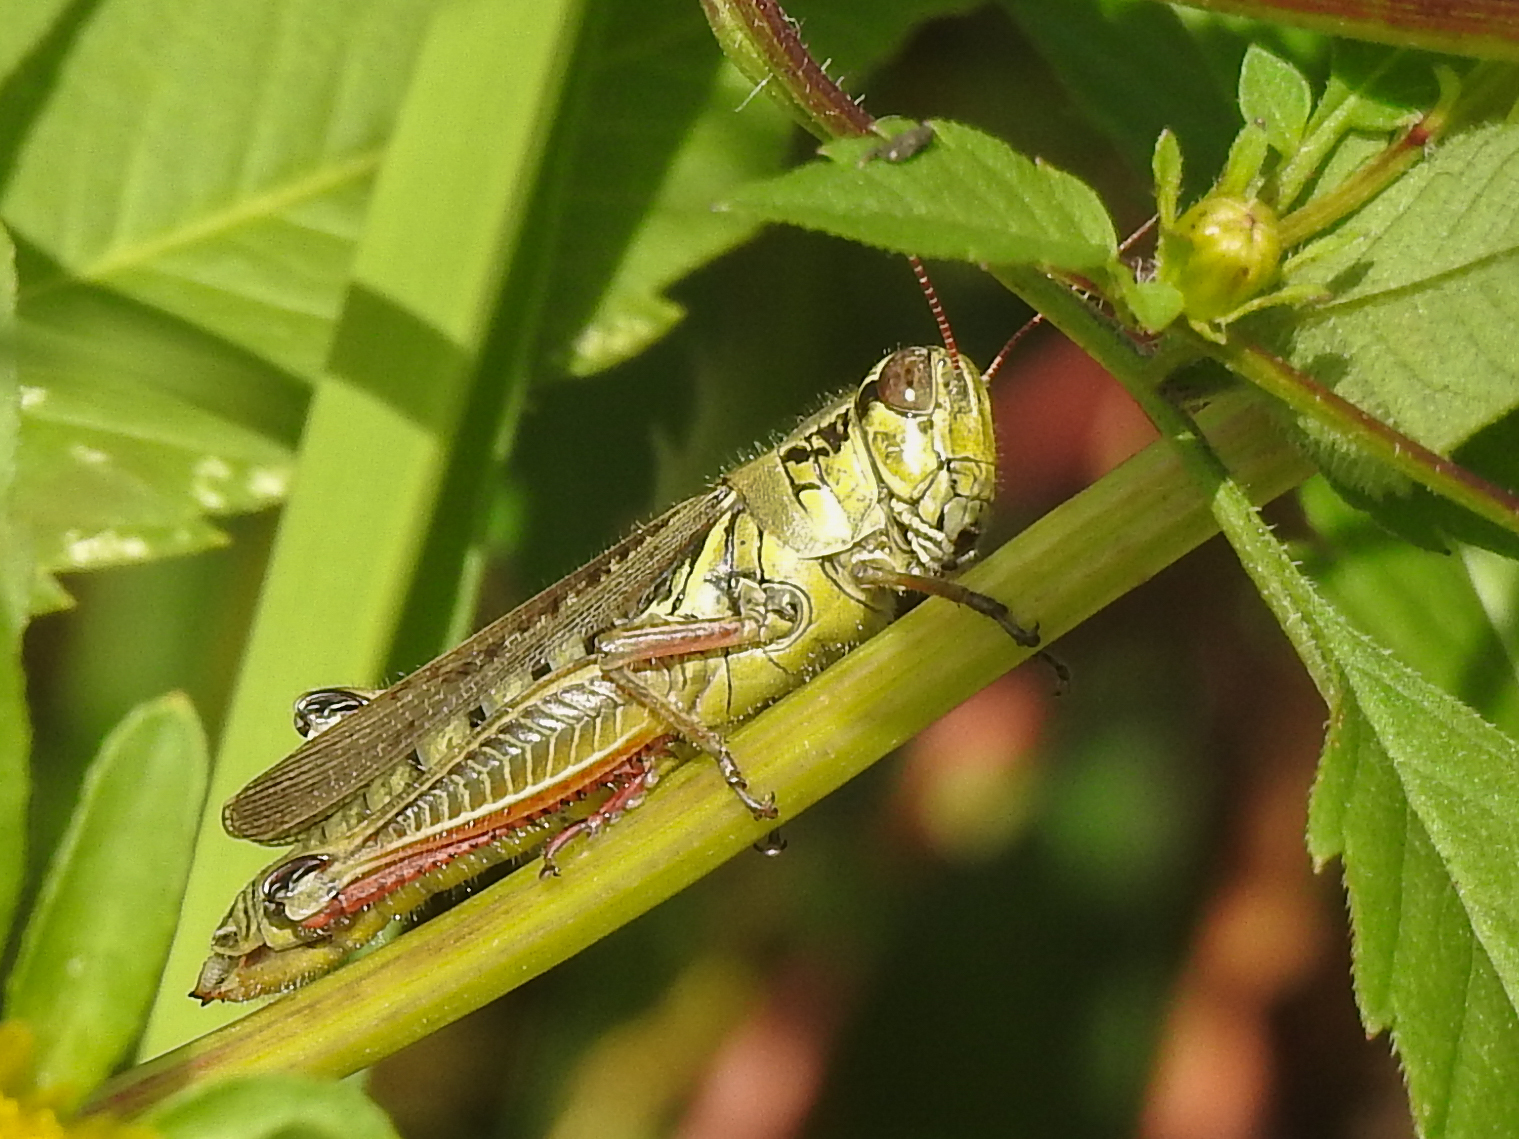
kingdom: Animalia
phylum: Arthropoda
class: Insecta
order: Orthoptera
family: Acrididae
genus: Melanoplus
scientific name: Melanoplus femurrubrum
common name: Red-legged grasshopper
